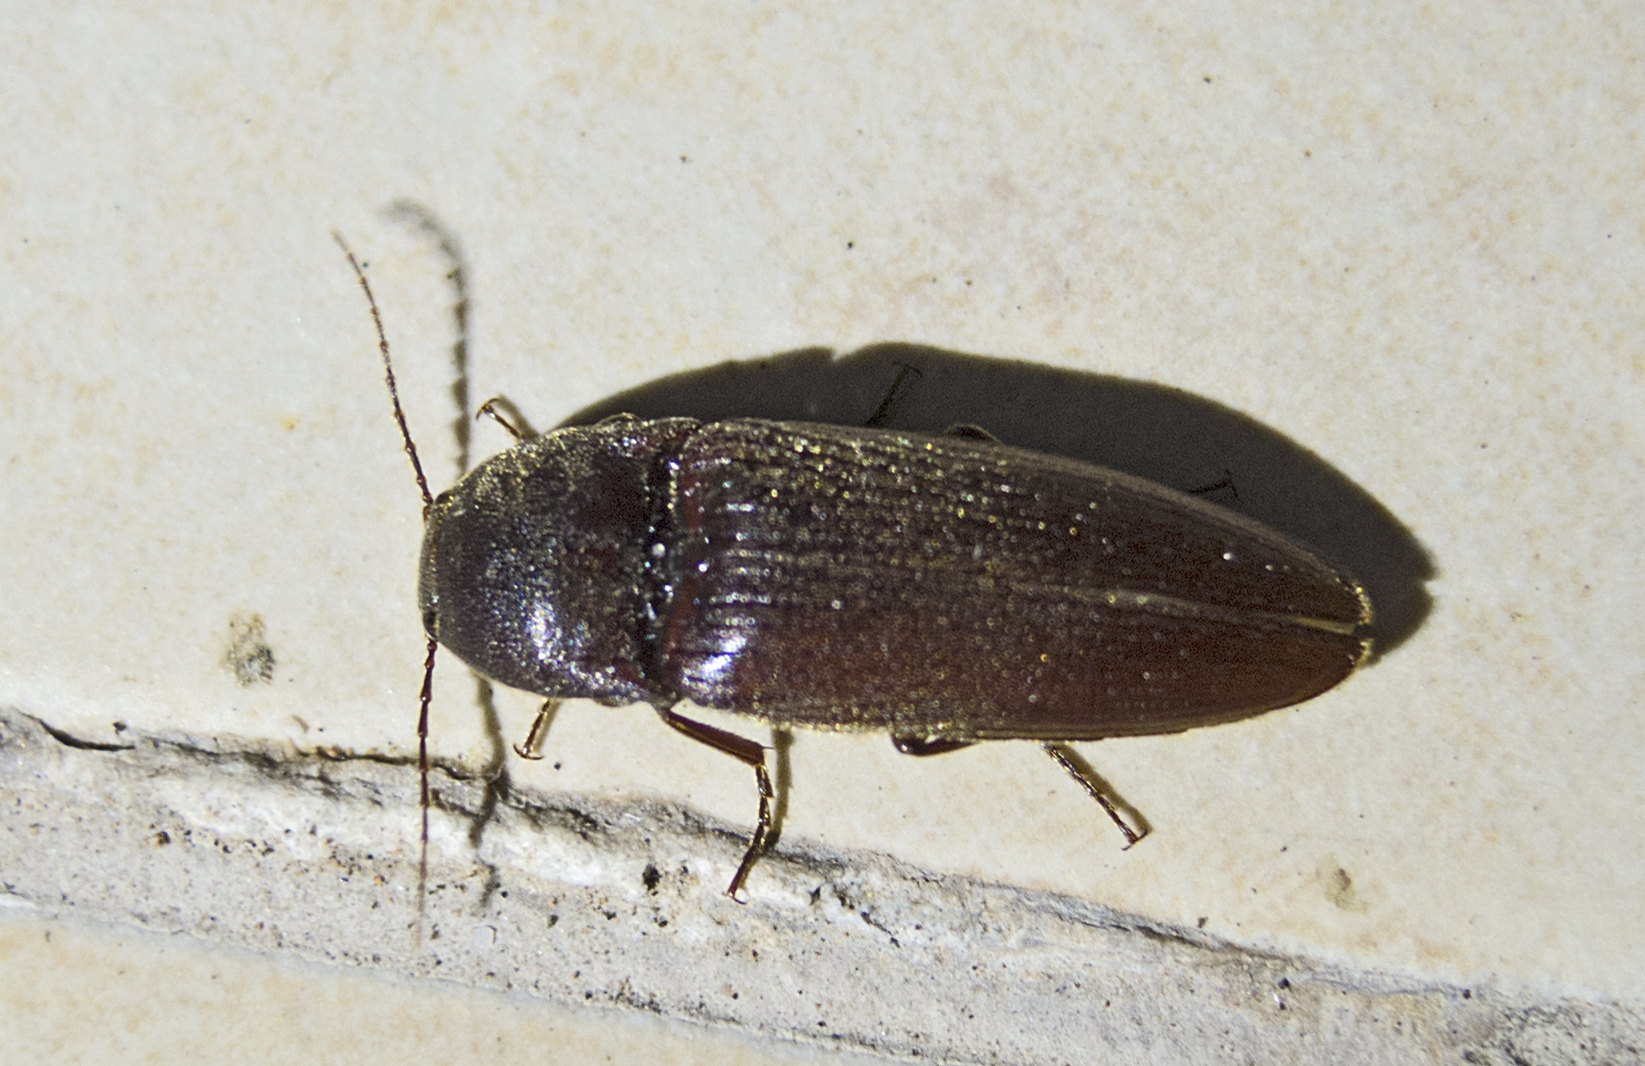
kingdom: Animalia
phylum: Arthropoda
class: Insecta
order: Coleoptera
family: Elateridae
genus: Melanotus
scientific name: Melanotus fusciceps
